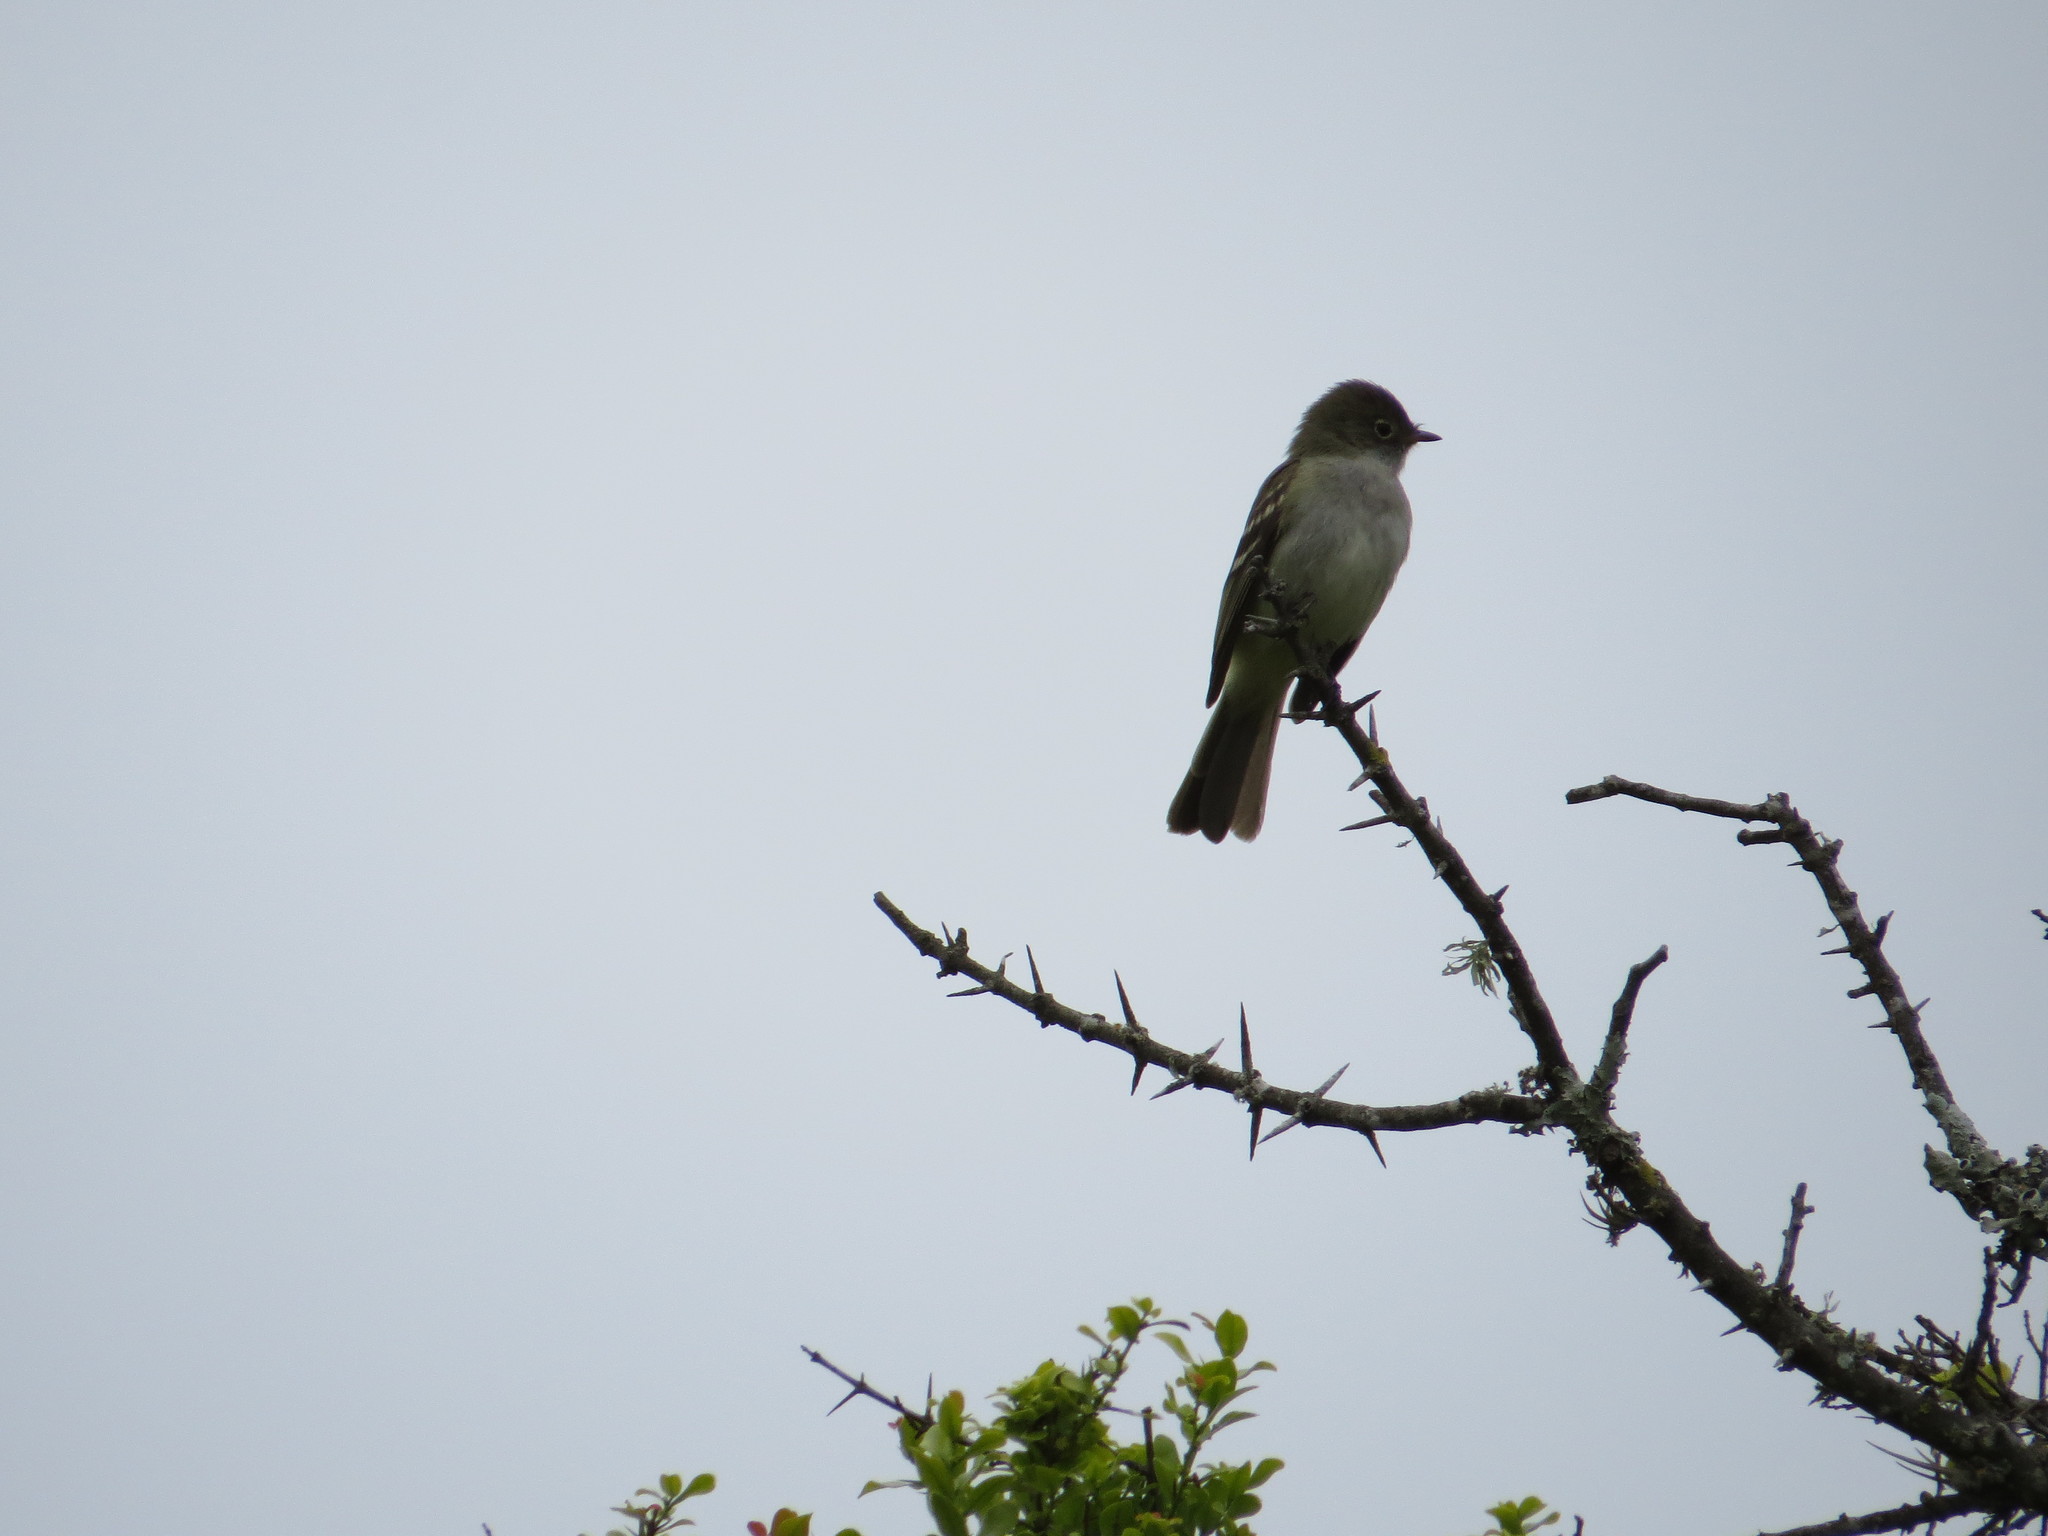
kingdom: Animalia
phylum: Chordata
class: Aves
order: Passeriformes
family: Tyrannidae
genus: Elaenia
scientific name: Elaenia parvirostris
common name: Small-billed elaenia
